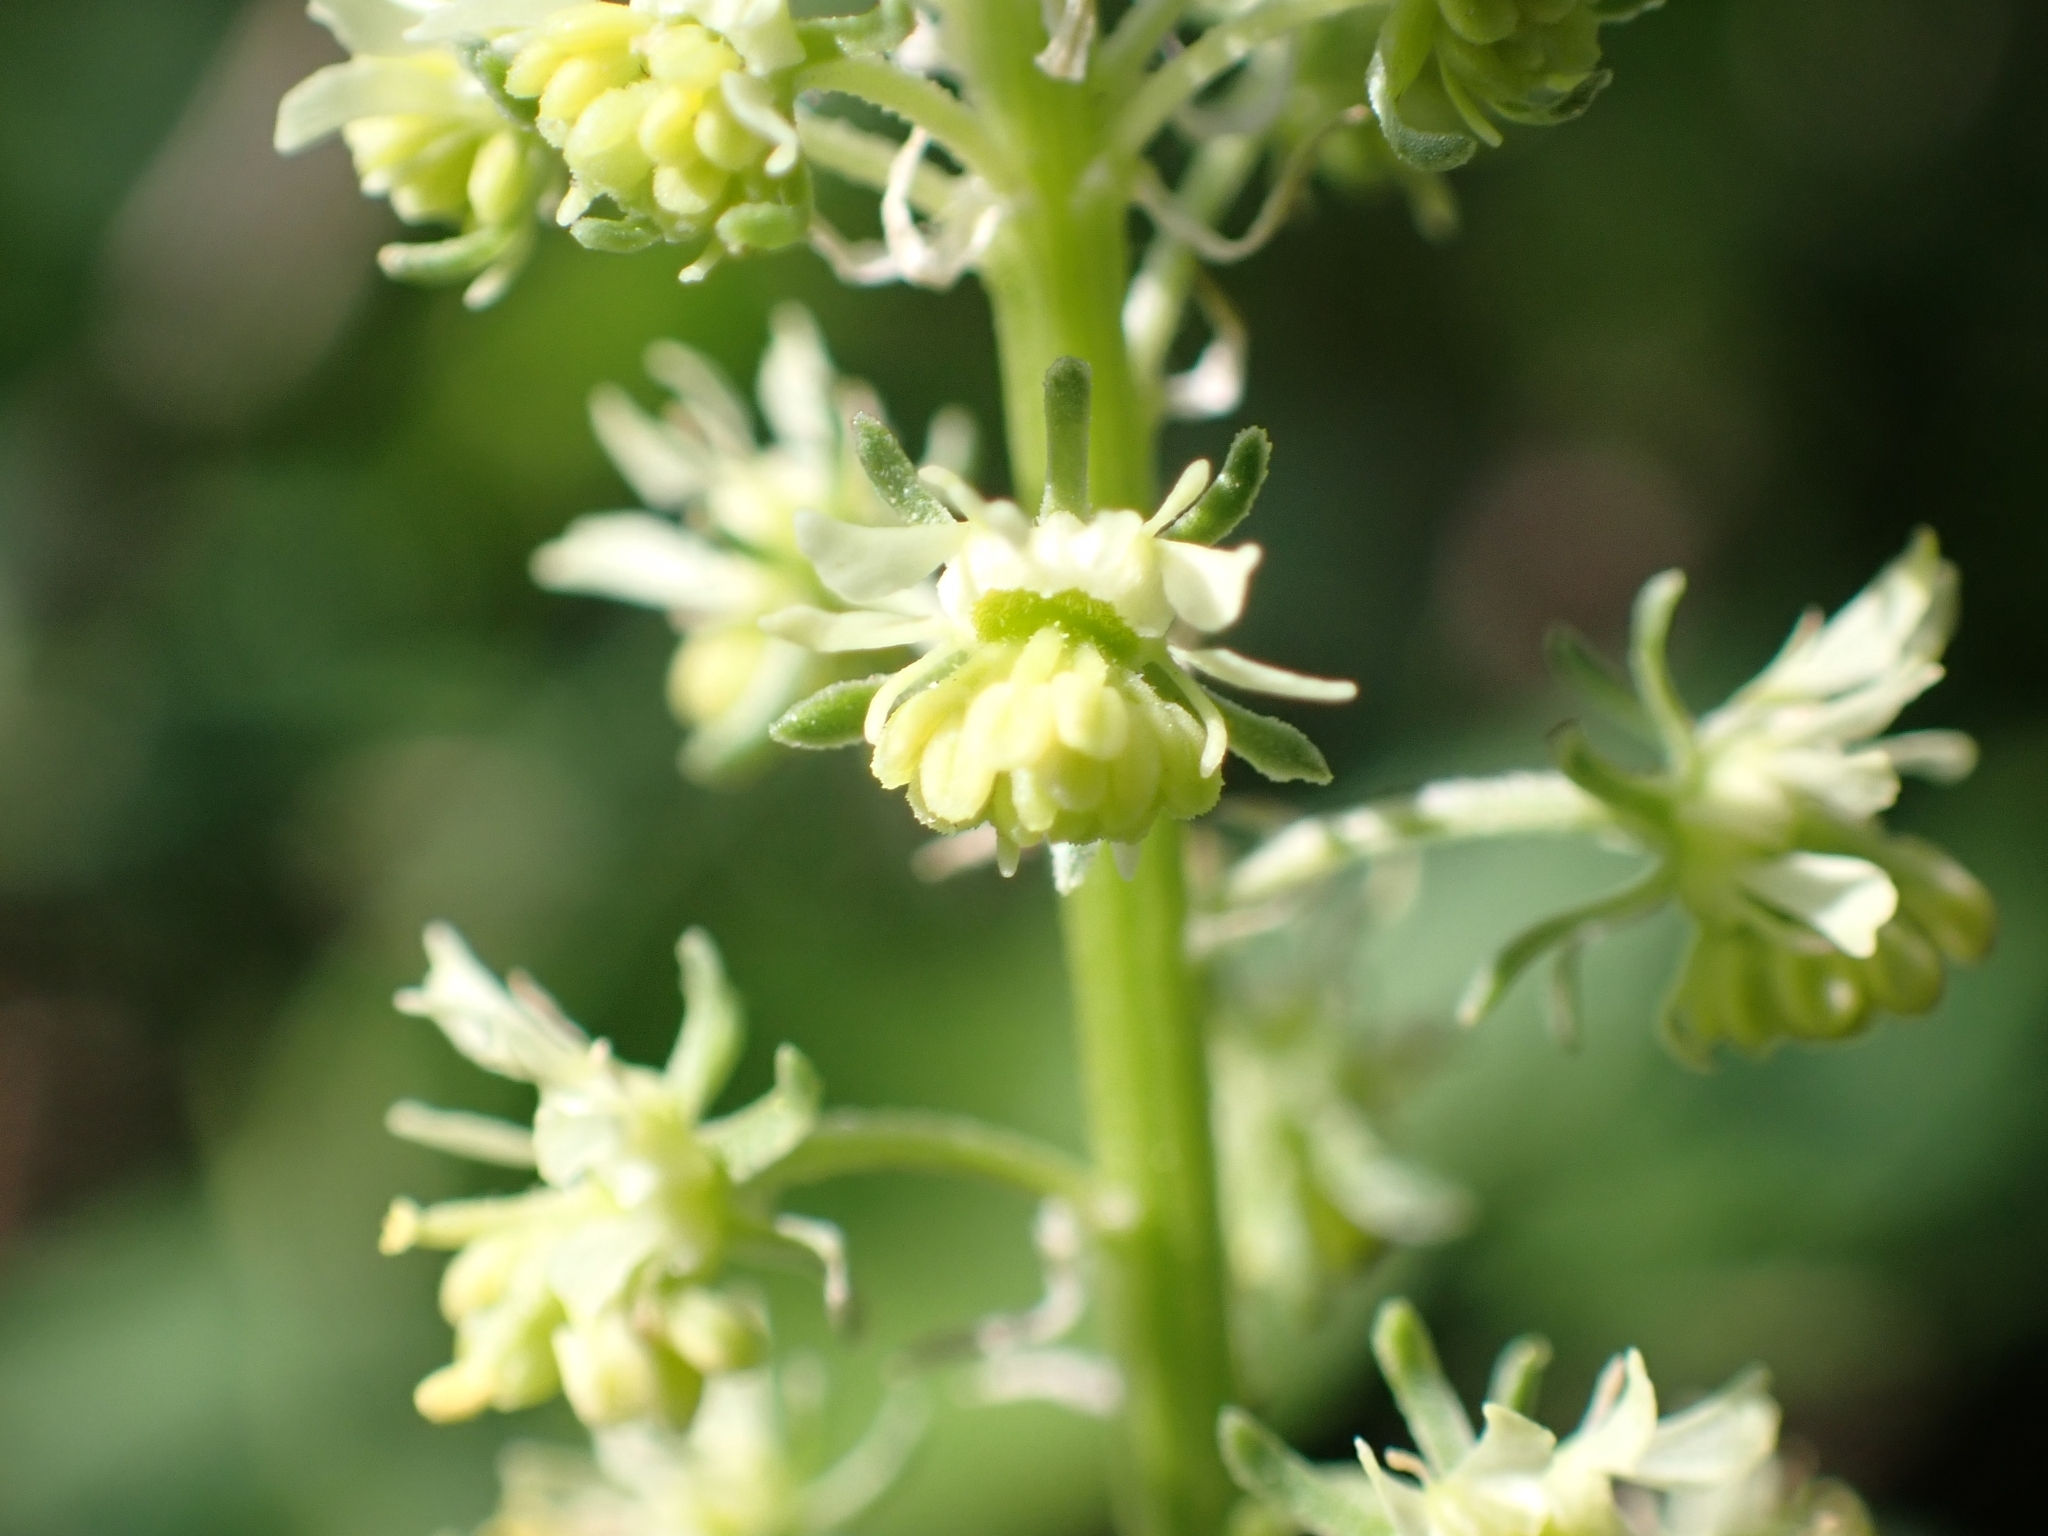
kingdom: Plantae
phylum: Tracheophyta
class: Magnoliopsida
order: Brassicales
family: Resedaceae
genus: Reseda
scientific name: Reseda lutea
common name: Wild mignonette
